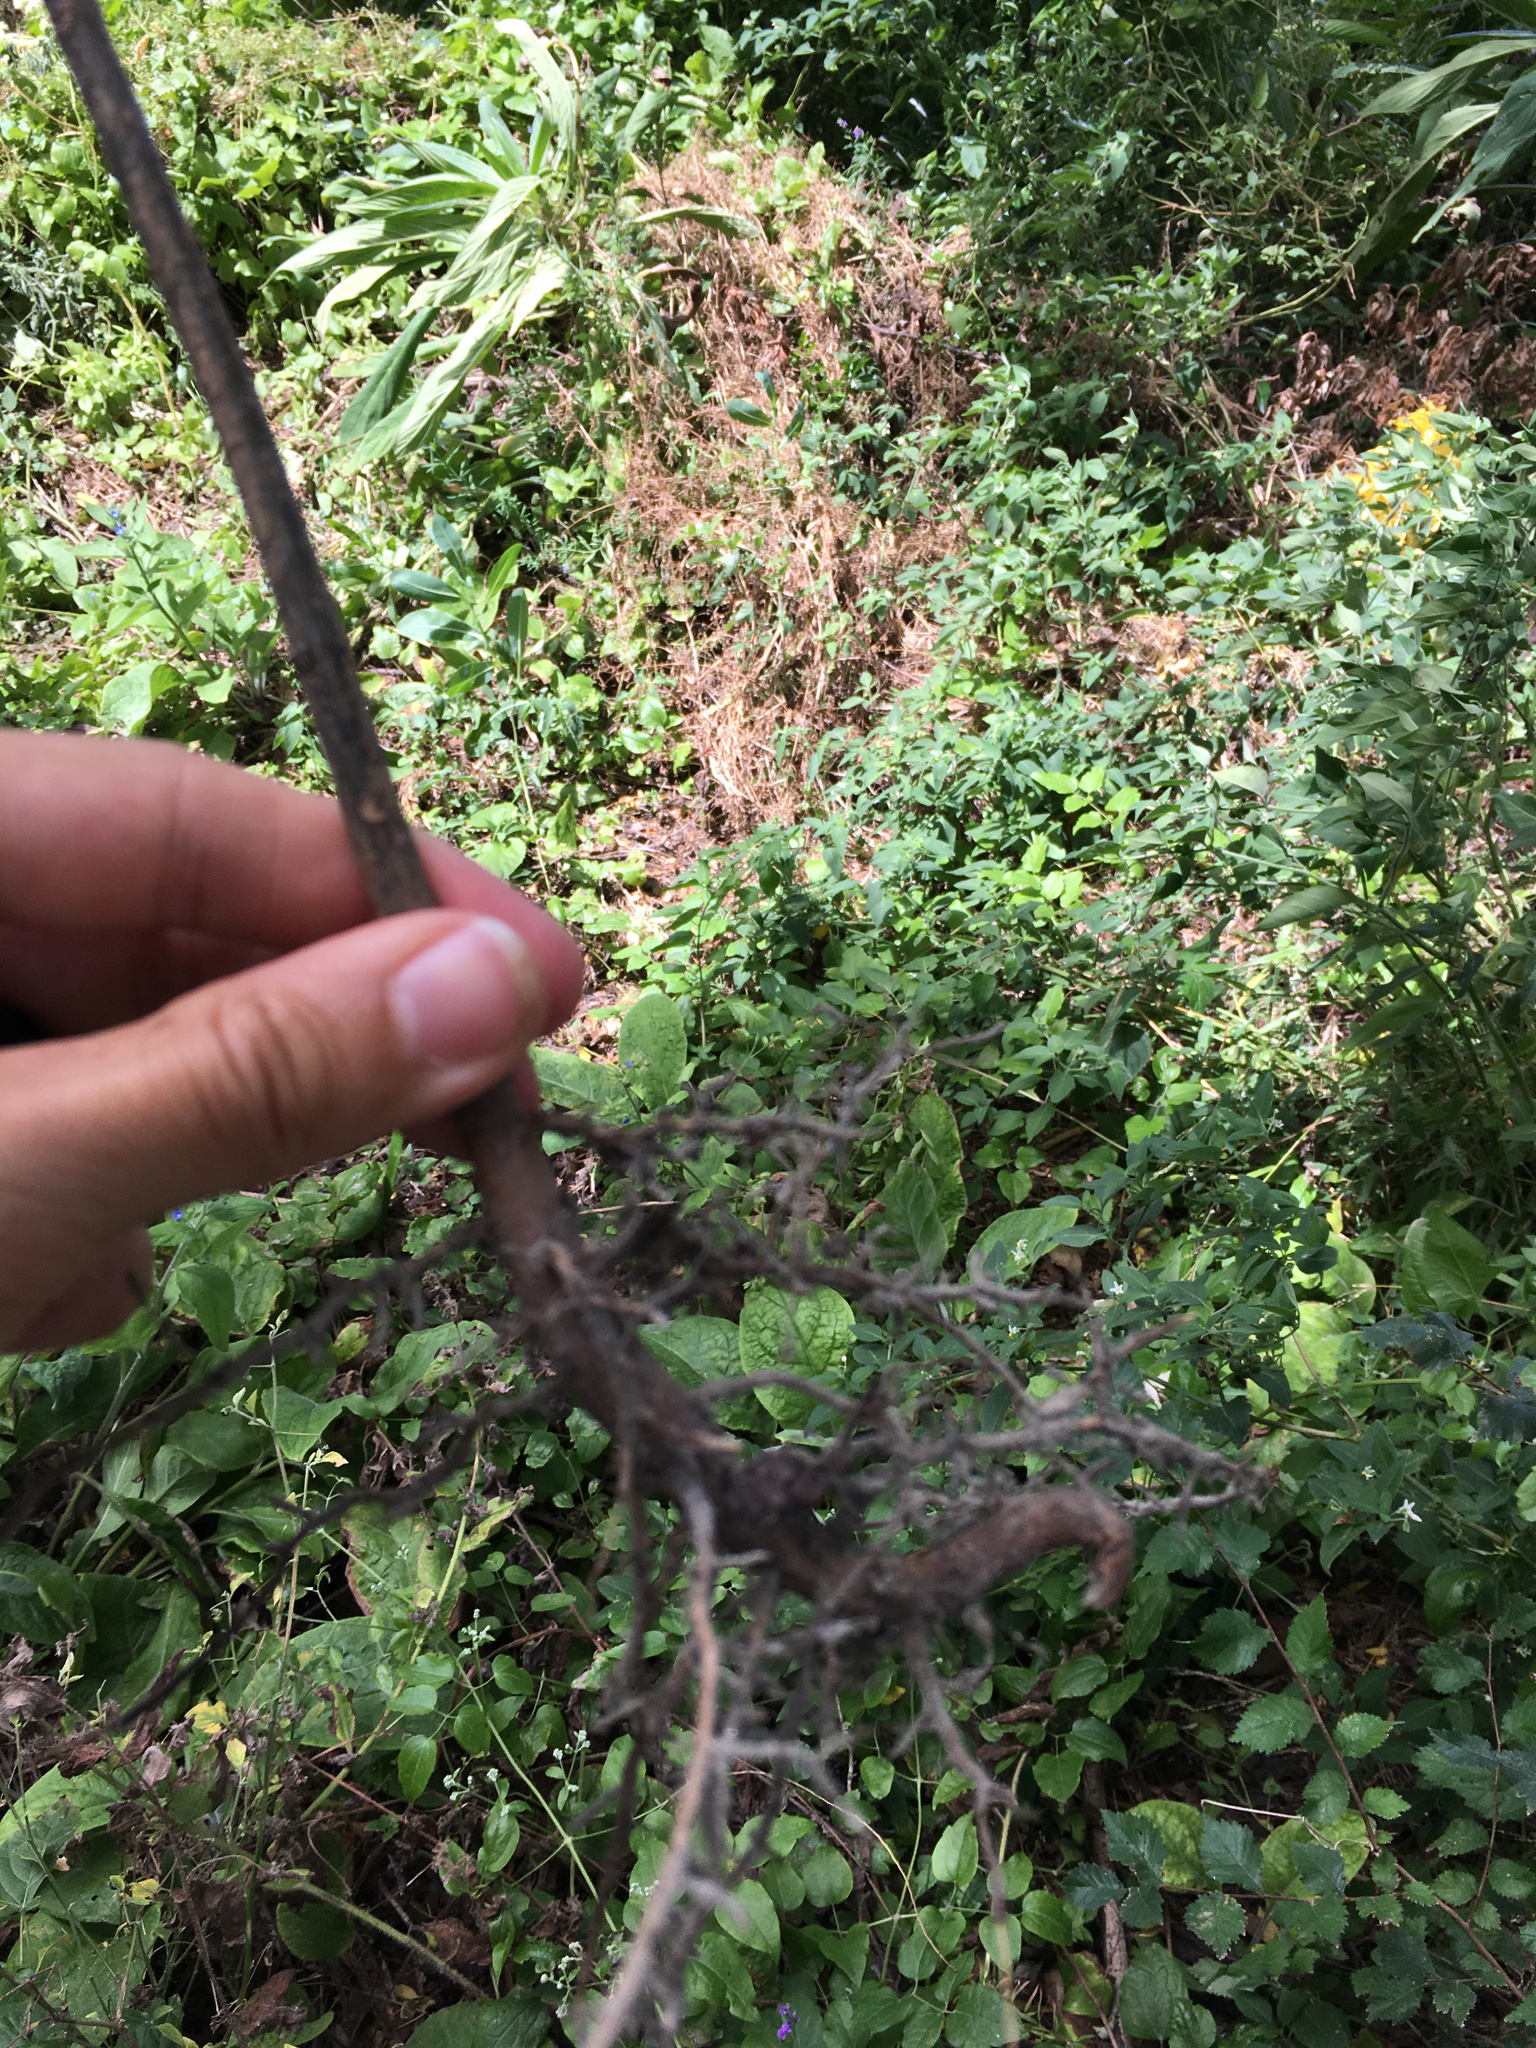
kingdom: Plantae
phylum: Tracheophyta
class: Magnoliopsida
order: Lamiales
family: Lamiaceae
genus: Clerodendrum
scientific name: Clerodendrum bungei
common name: Rose glorybower
